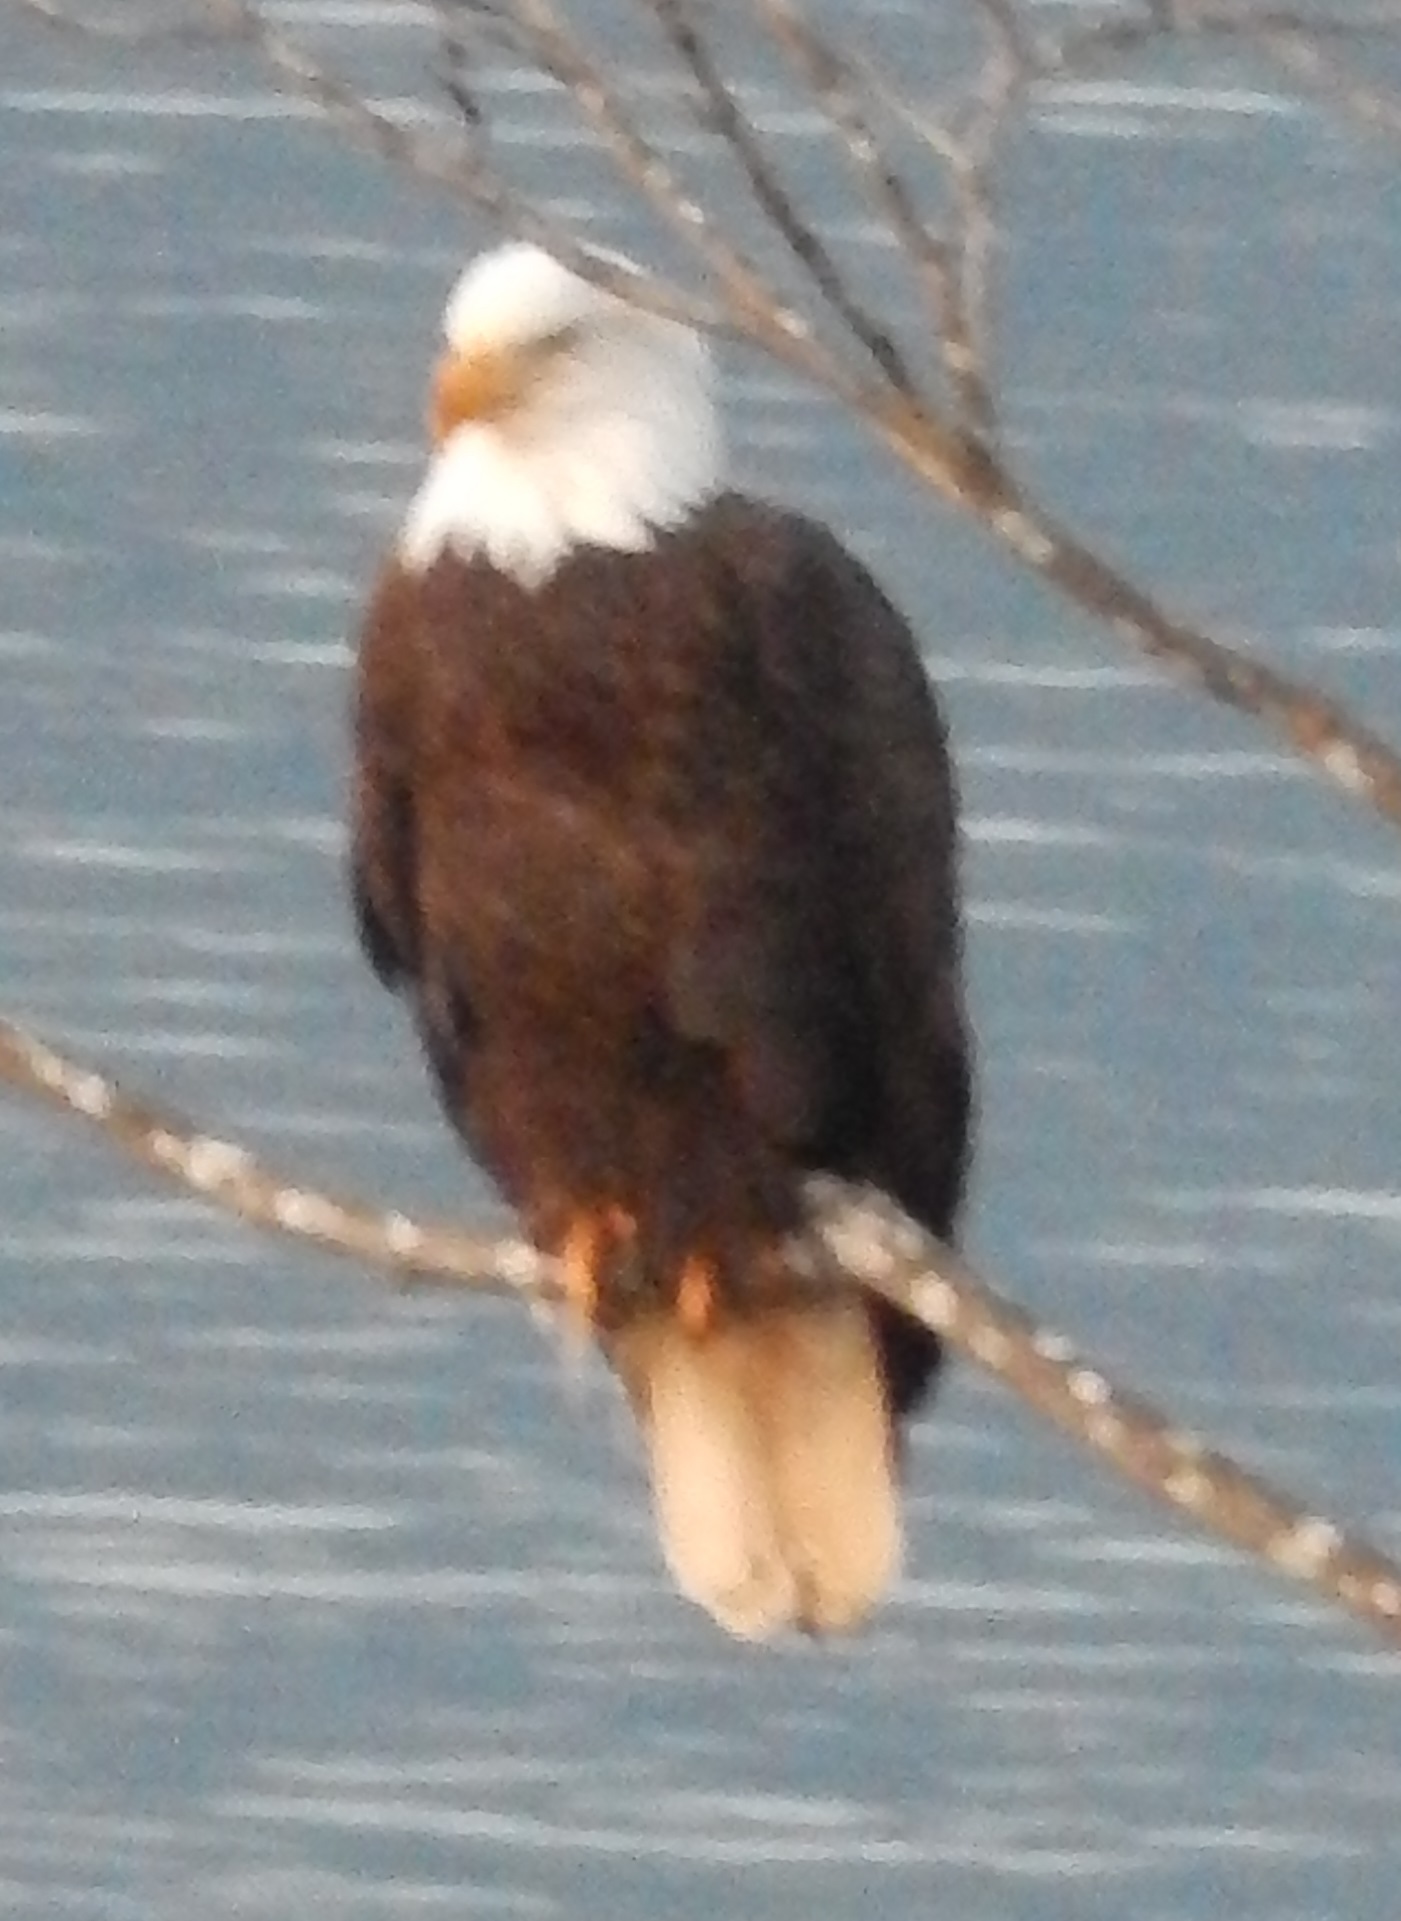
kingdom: Animalia
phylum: Chordata
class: Aves
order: Accipitriformes
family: Accipitridae
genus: Haliaeetus
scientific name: Haliaeetus leucocephalus
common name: Bald eagle
